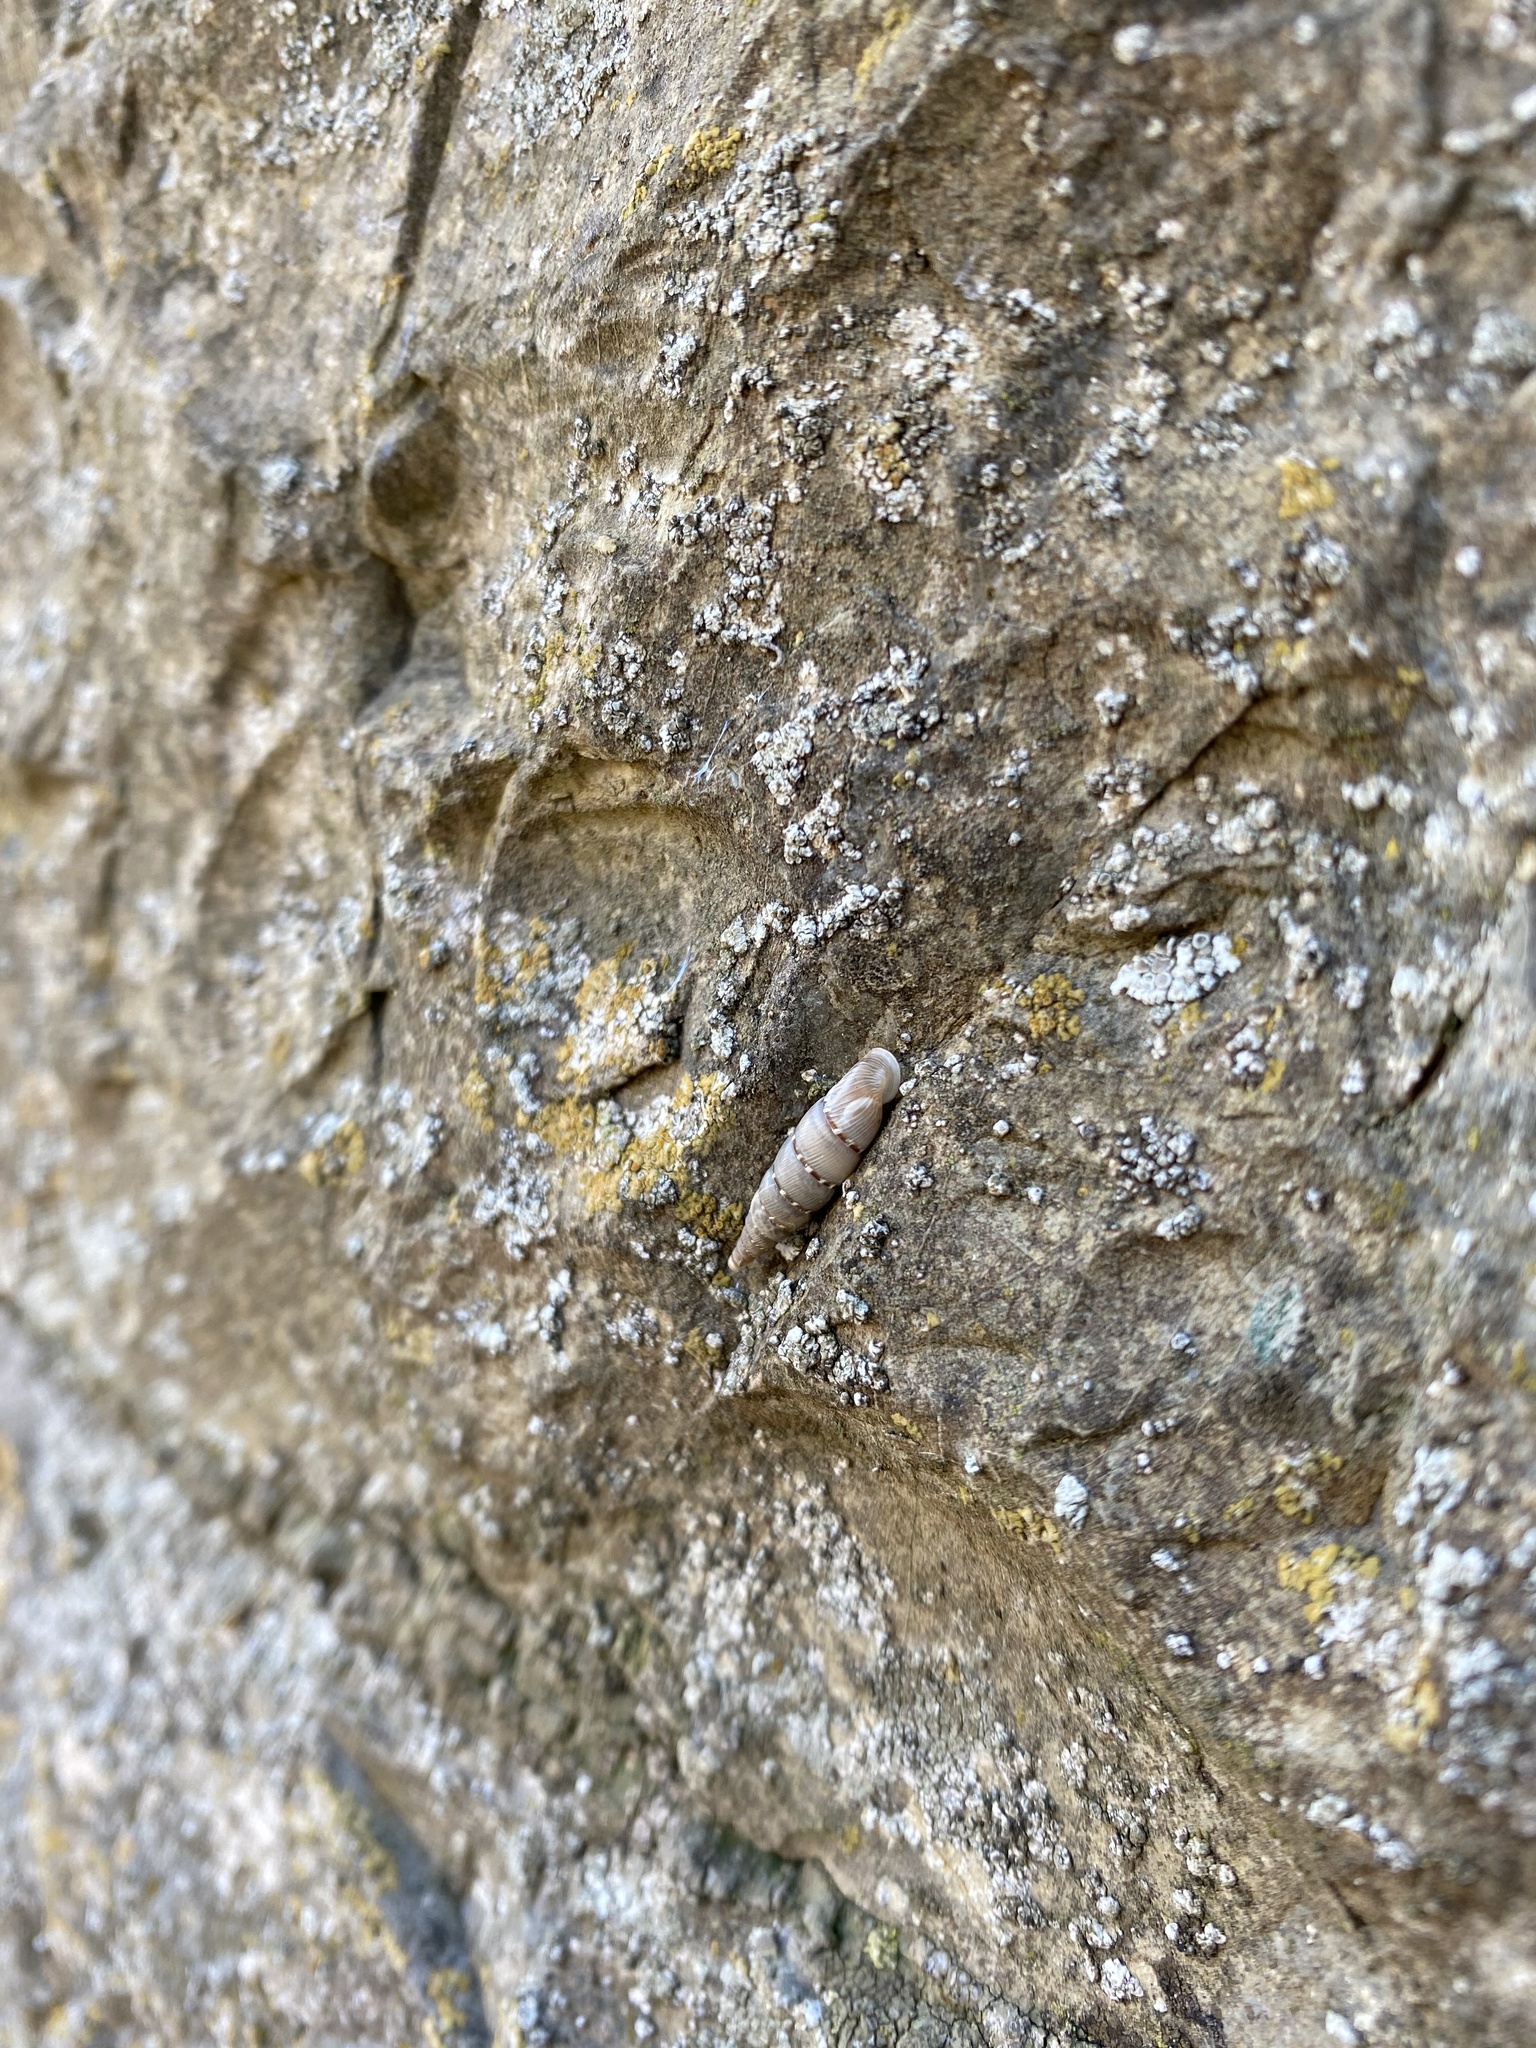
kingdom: Animalia
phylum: Mollusca
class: Gastropoda
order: Stylommatophora
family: Clausiliidae
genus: Papillifera
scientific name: Papillifera papillaris
